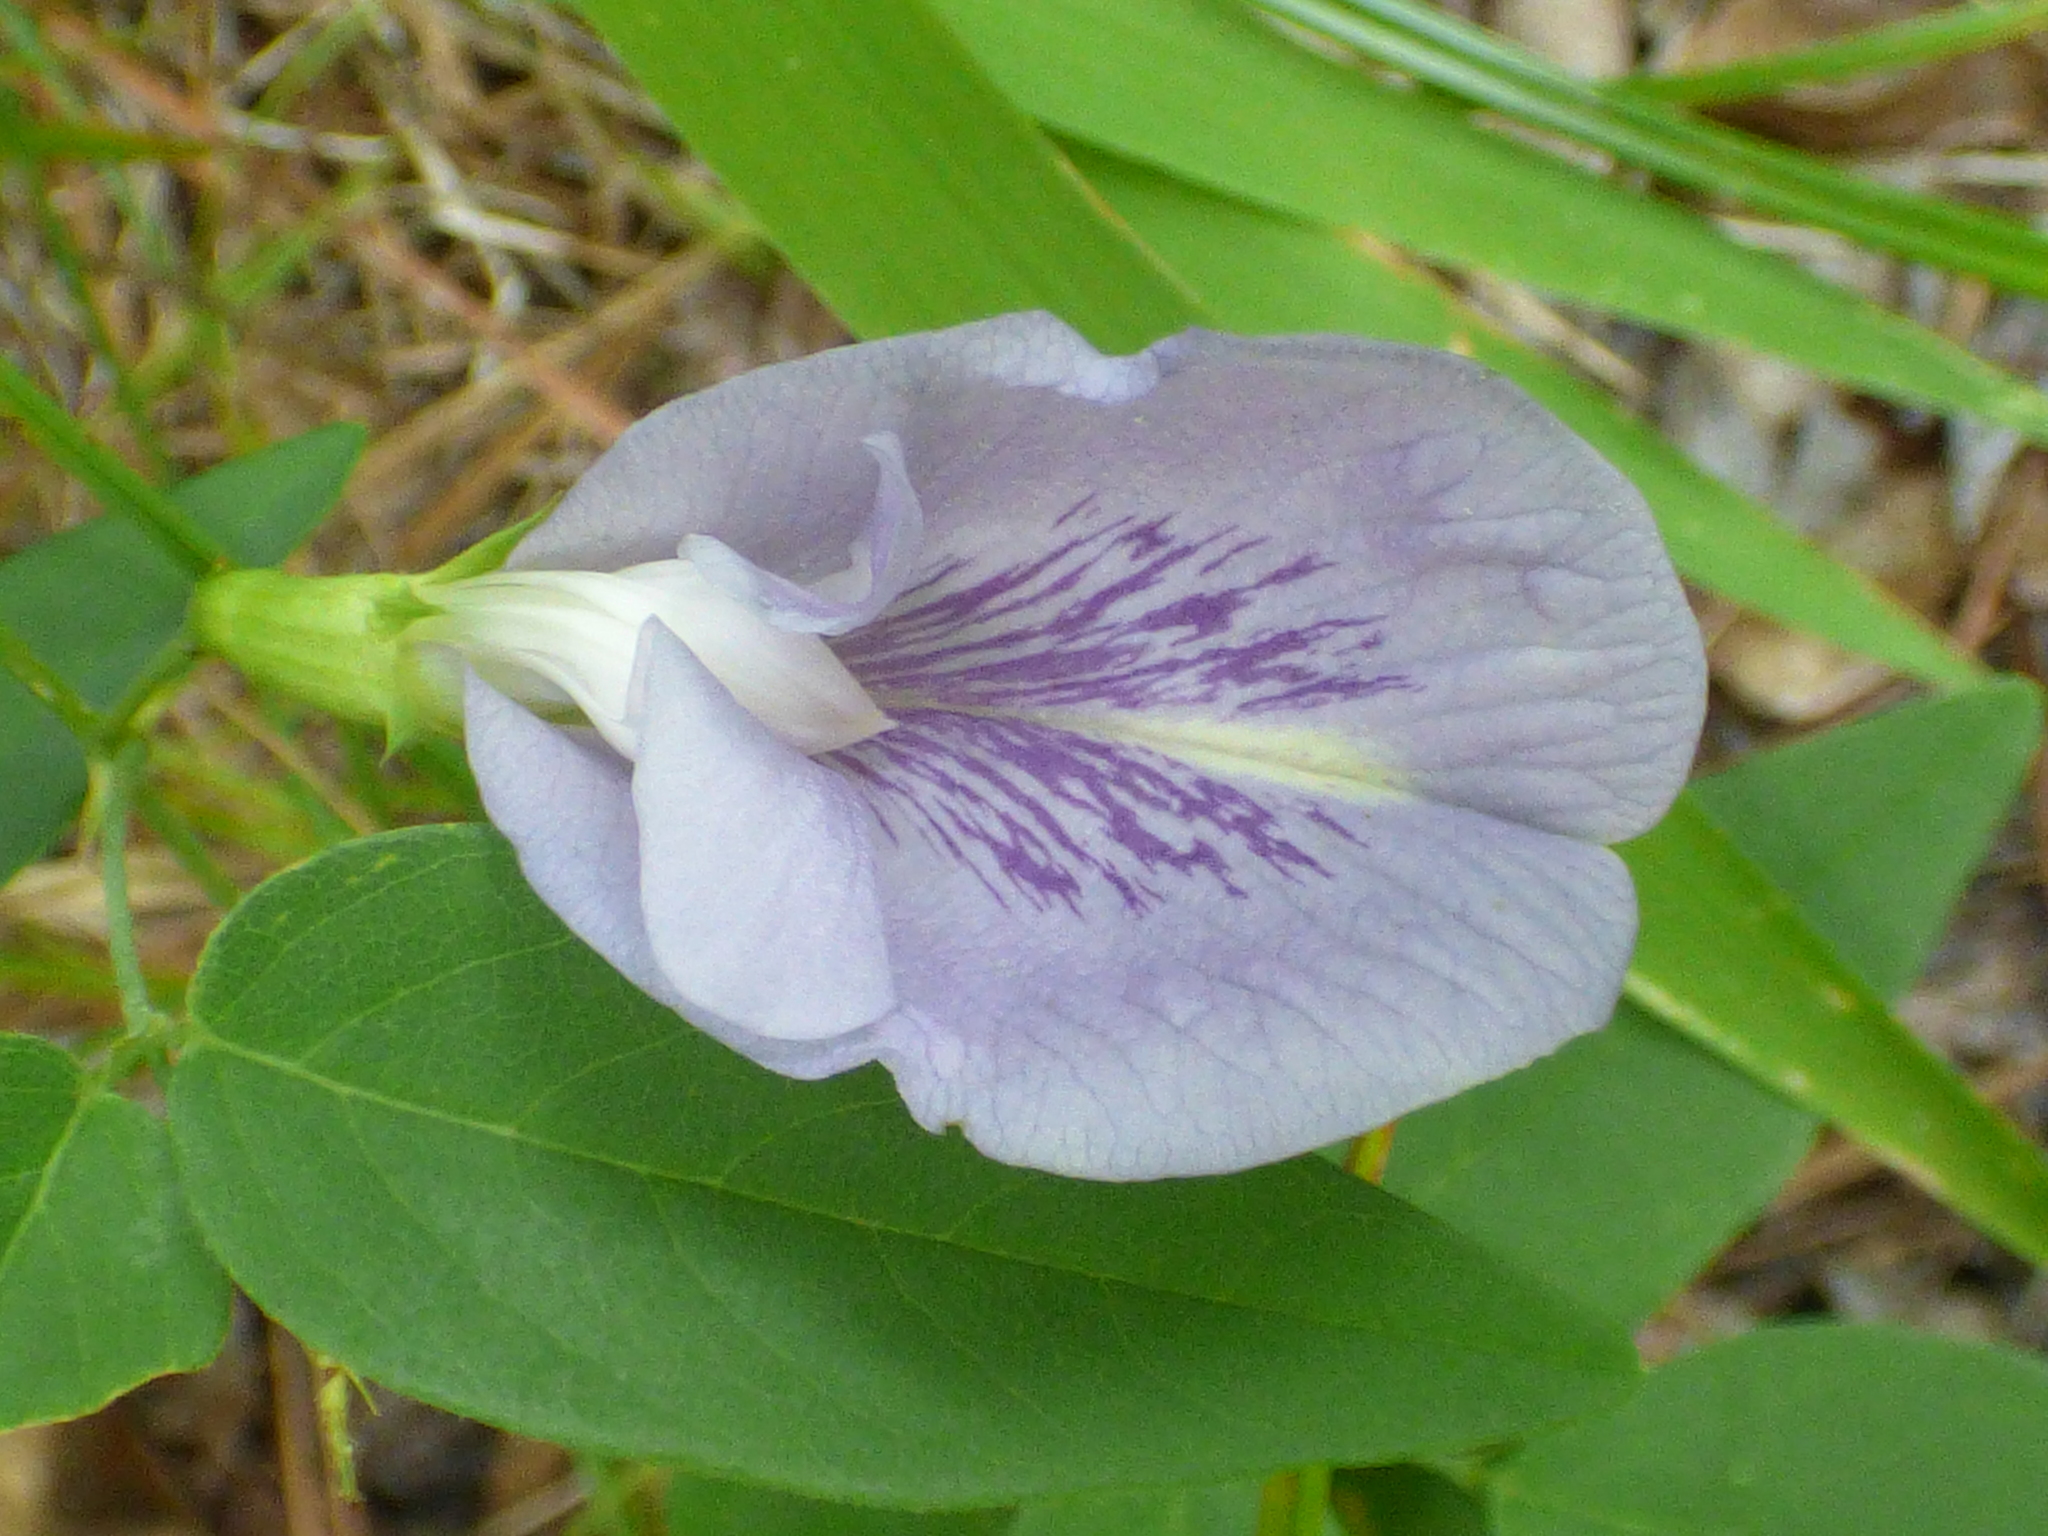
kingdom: Plantae
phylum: Tracheophyta
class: Magnoliopsida
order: Fabales
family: Fabaceae
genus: Clitoria
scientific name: Clitoria mariana
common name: Butterfly-pea
